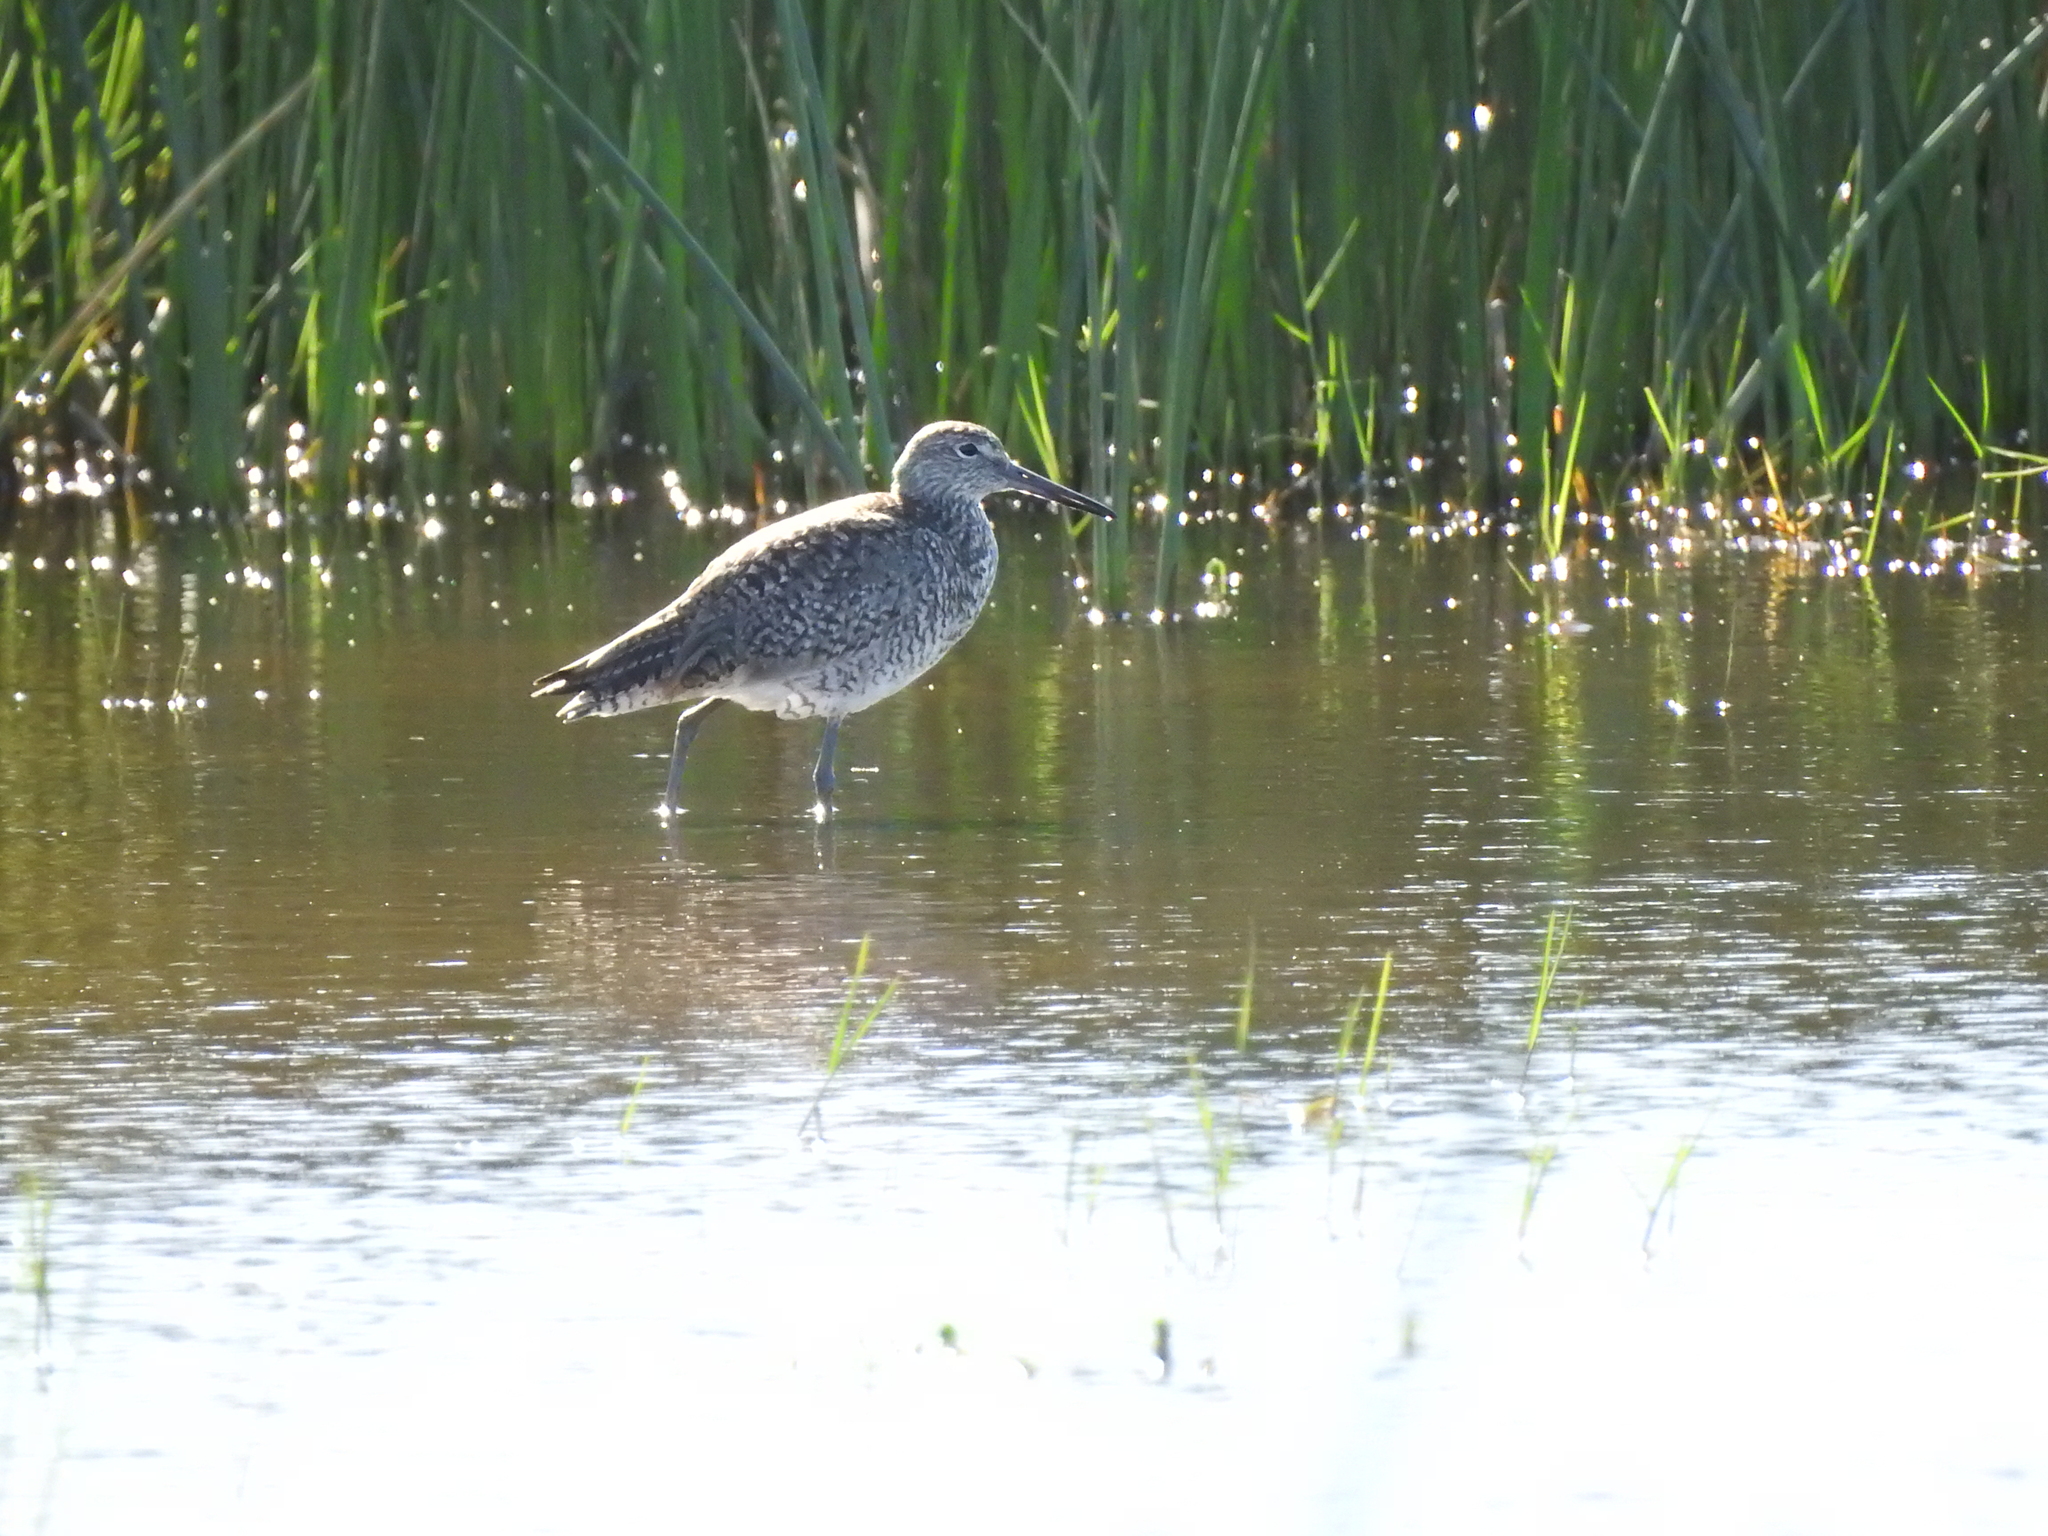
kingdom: Animalia
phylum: Chordata
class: Aves
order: Charadriiformes
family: Scolopacidae
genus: Tringa
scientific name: Tringa semipalmata
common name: Willet
